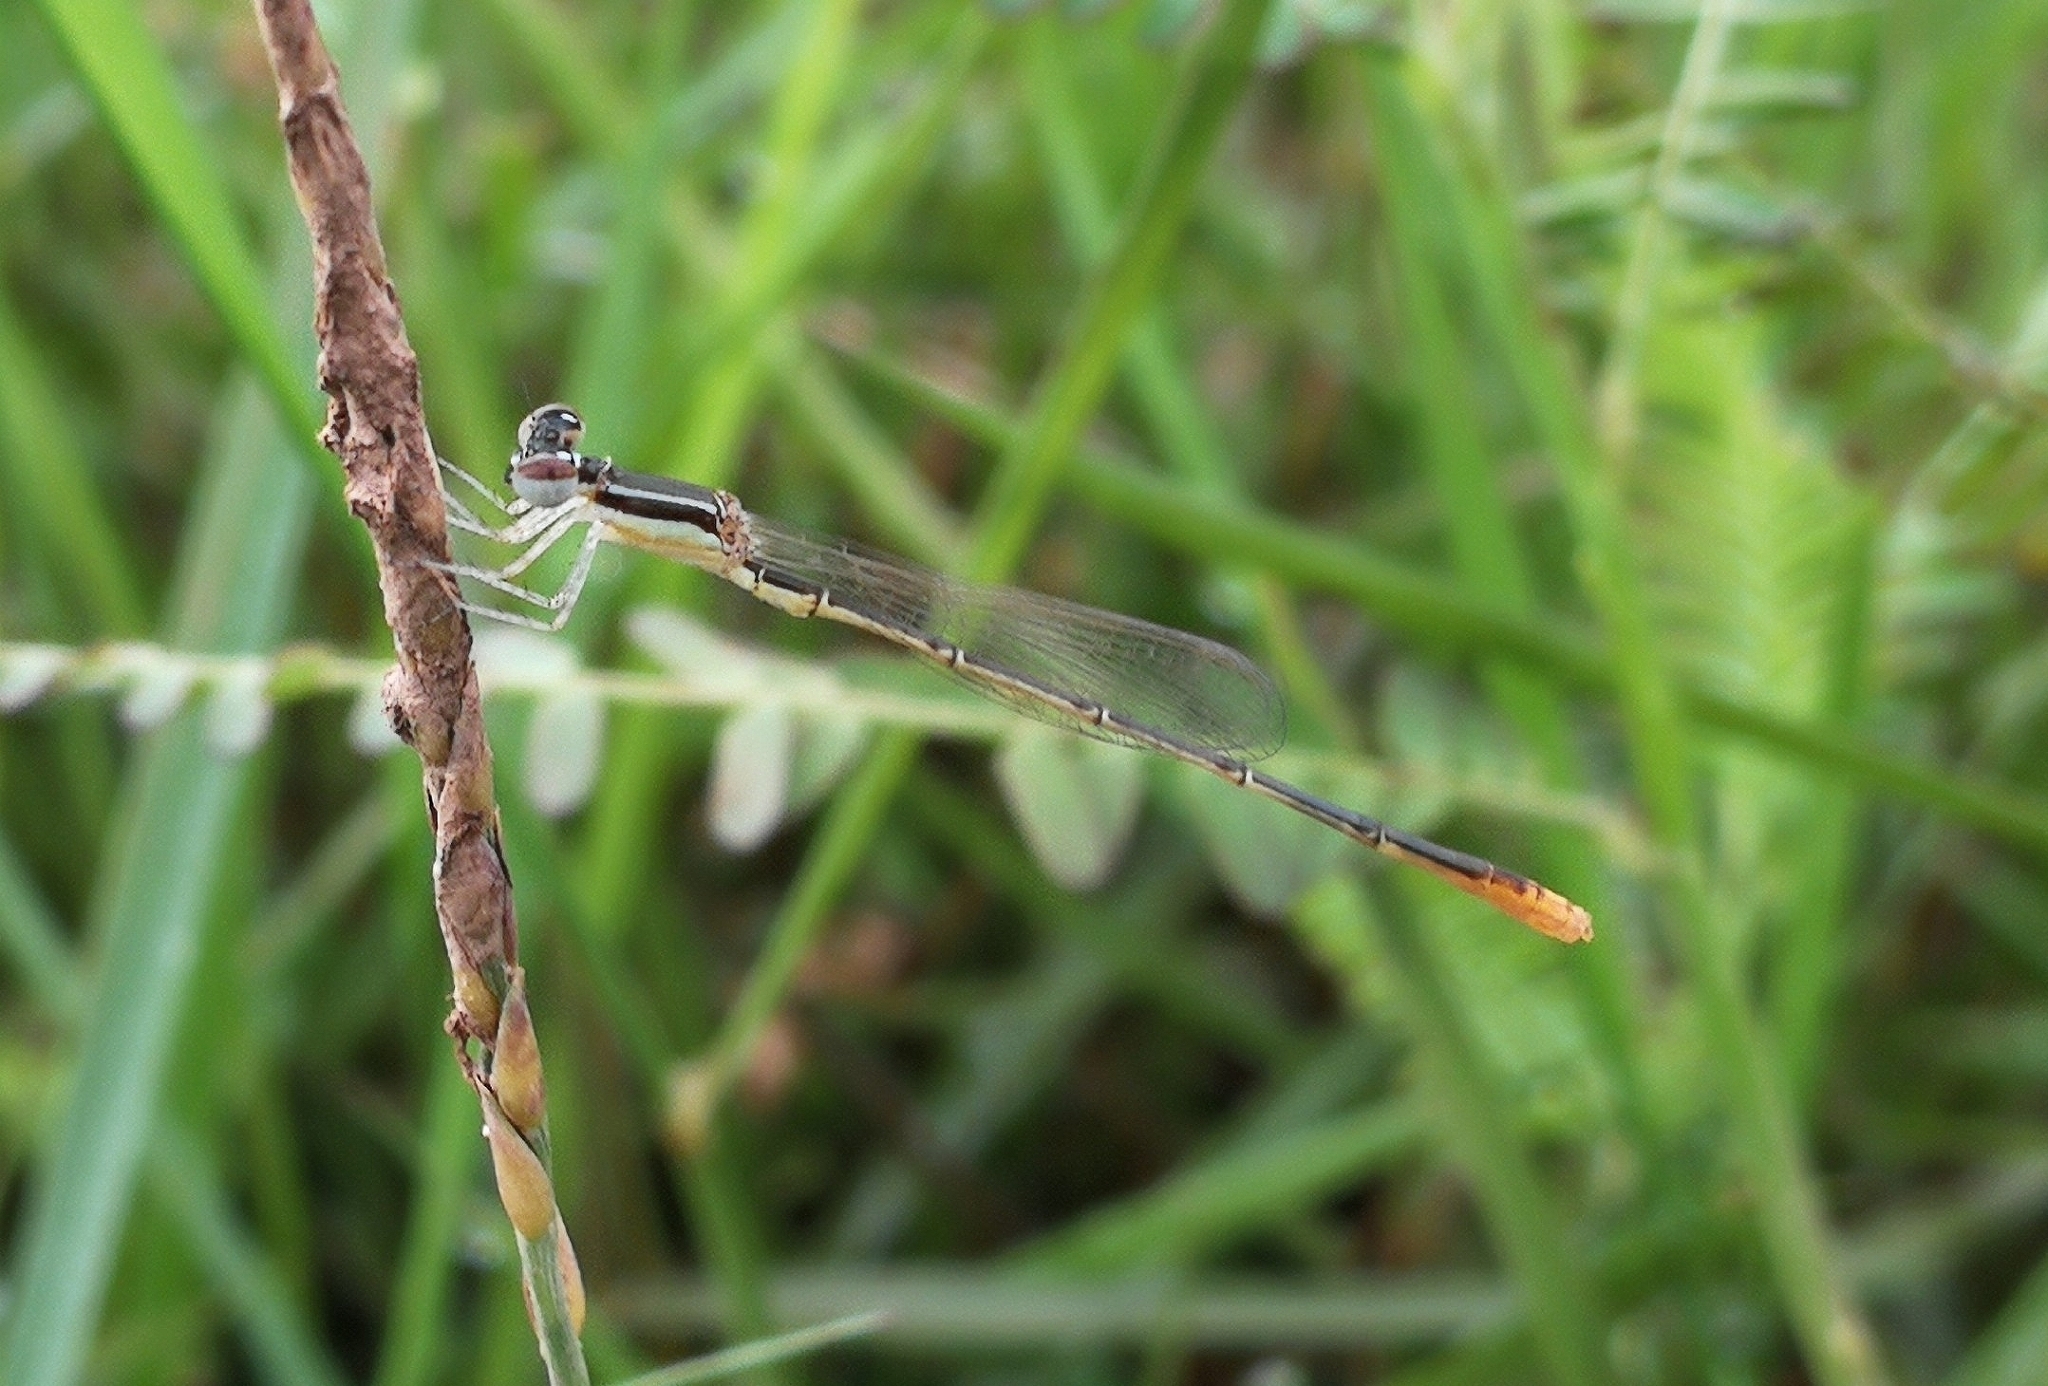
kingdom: Animalia
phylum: Arthropoda
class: Insecta
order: Odonata
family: Coenagrionidae
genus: Agriocnemis
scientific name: Agriocnemis pygmaea
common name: Pygmy wisp
